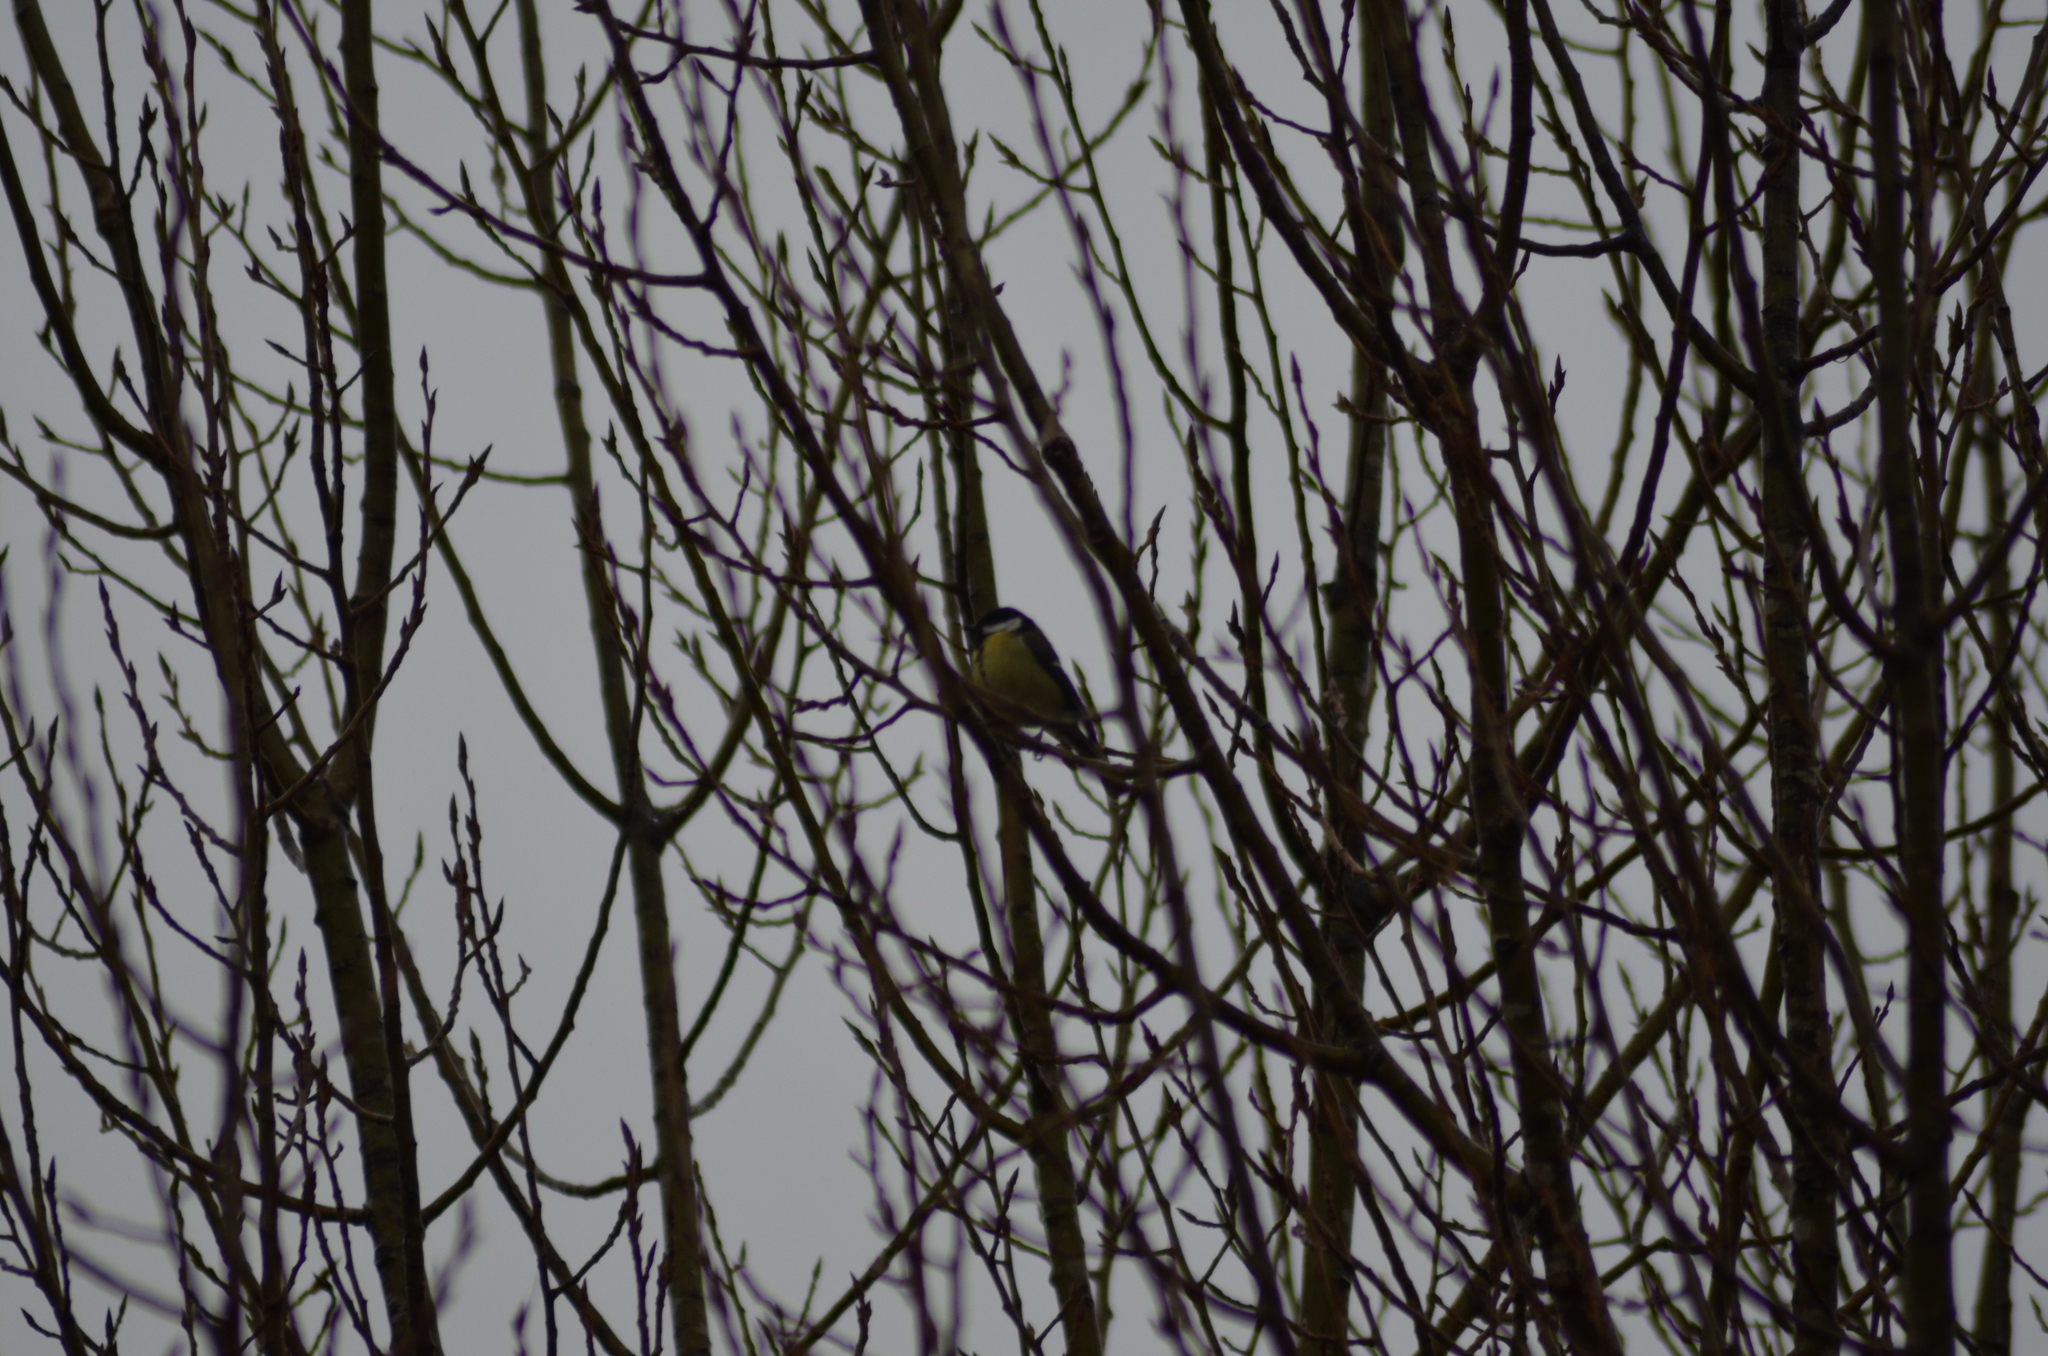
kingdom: Animalia
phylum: Chordata
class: Aves
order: Passeriformes
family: Paridae
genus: Parus
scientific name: Parus major
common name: Great tit
